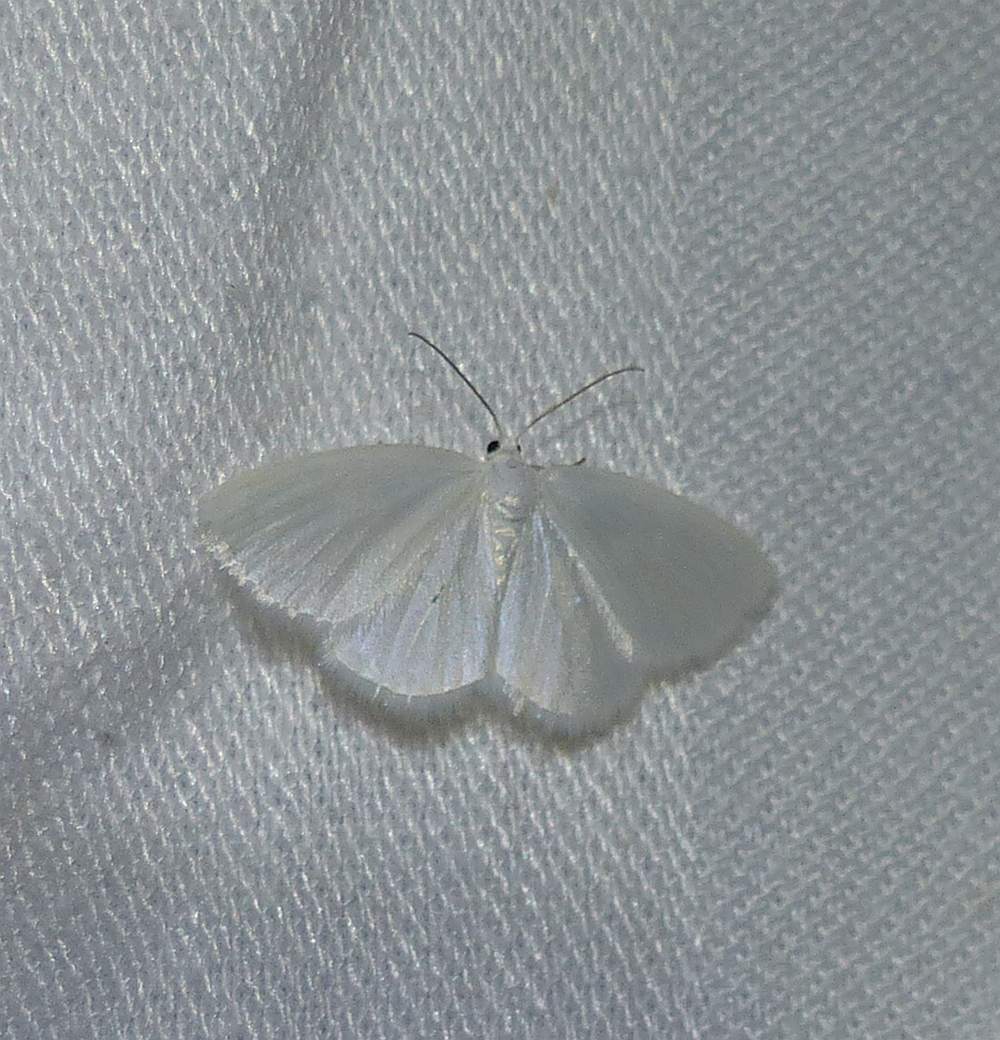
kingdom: Animalia
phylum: Arthropoda
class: Insecta
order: Lepidoptera
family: Geometridae
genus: Lomographa
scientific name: Lomographa vestaliata
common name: White spring moth
